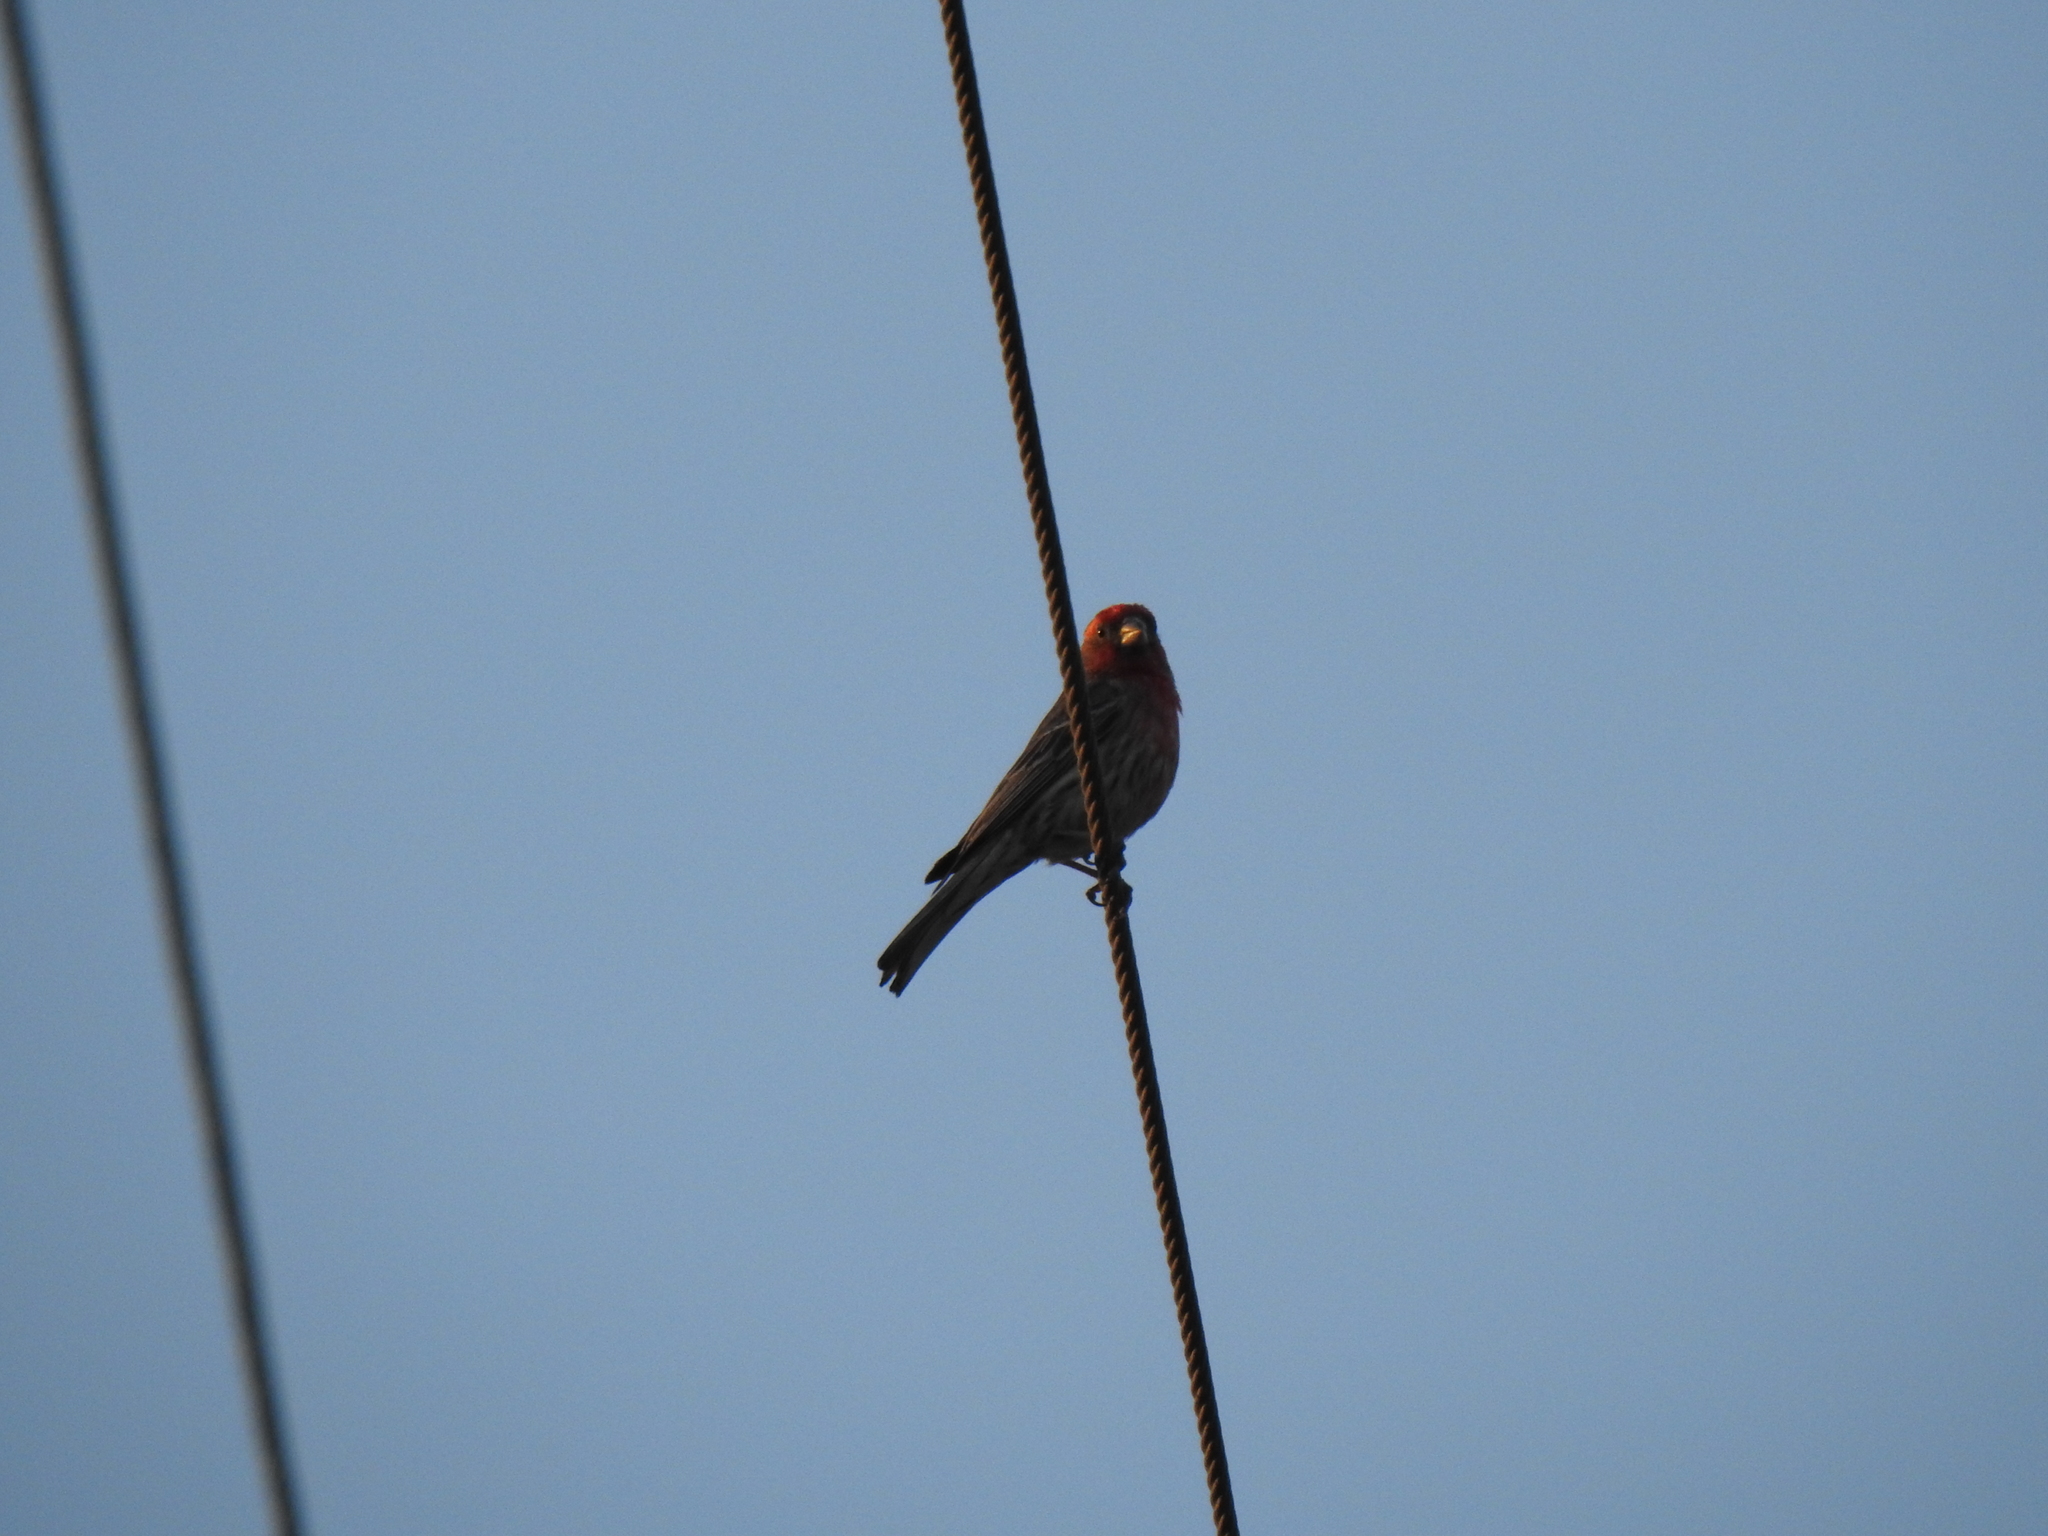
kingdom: Animalia
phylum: Chordata
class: Aves
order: Passeriformes
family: Fringillidae
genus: Haemorhous
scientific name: Haemorhous mexicanus
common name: House finch
